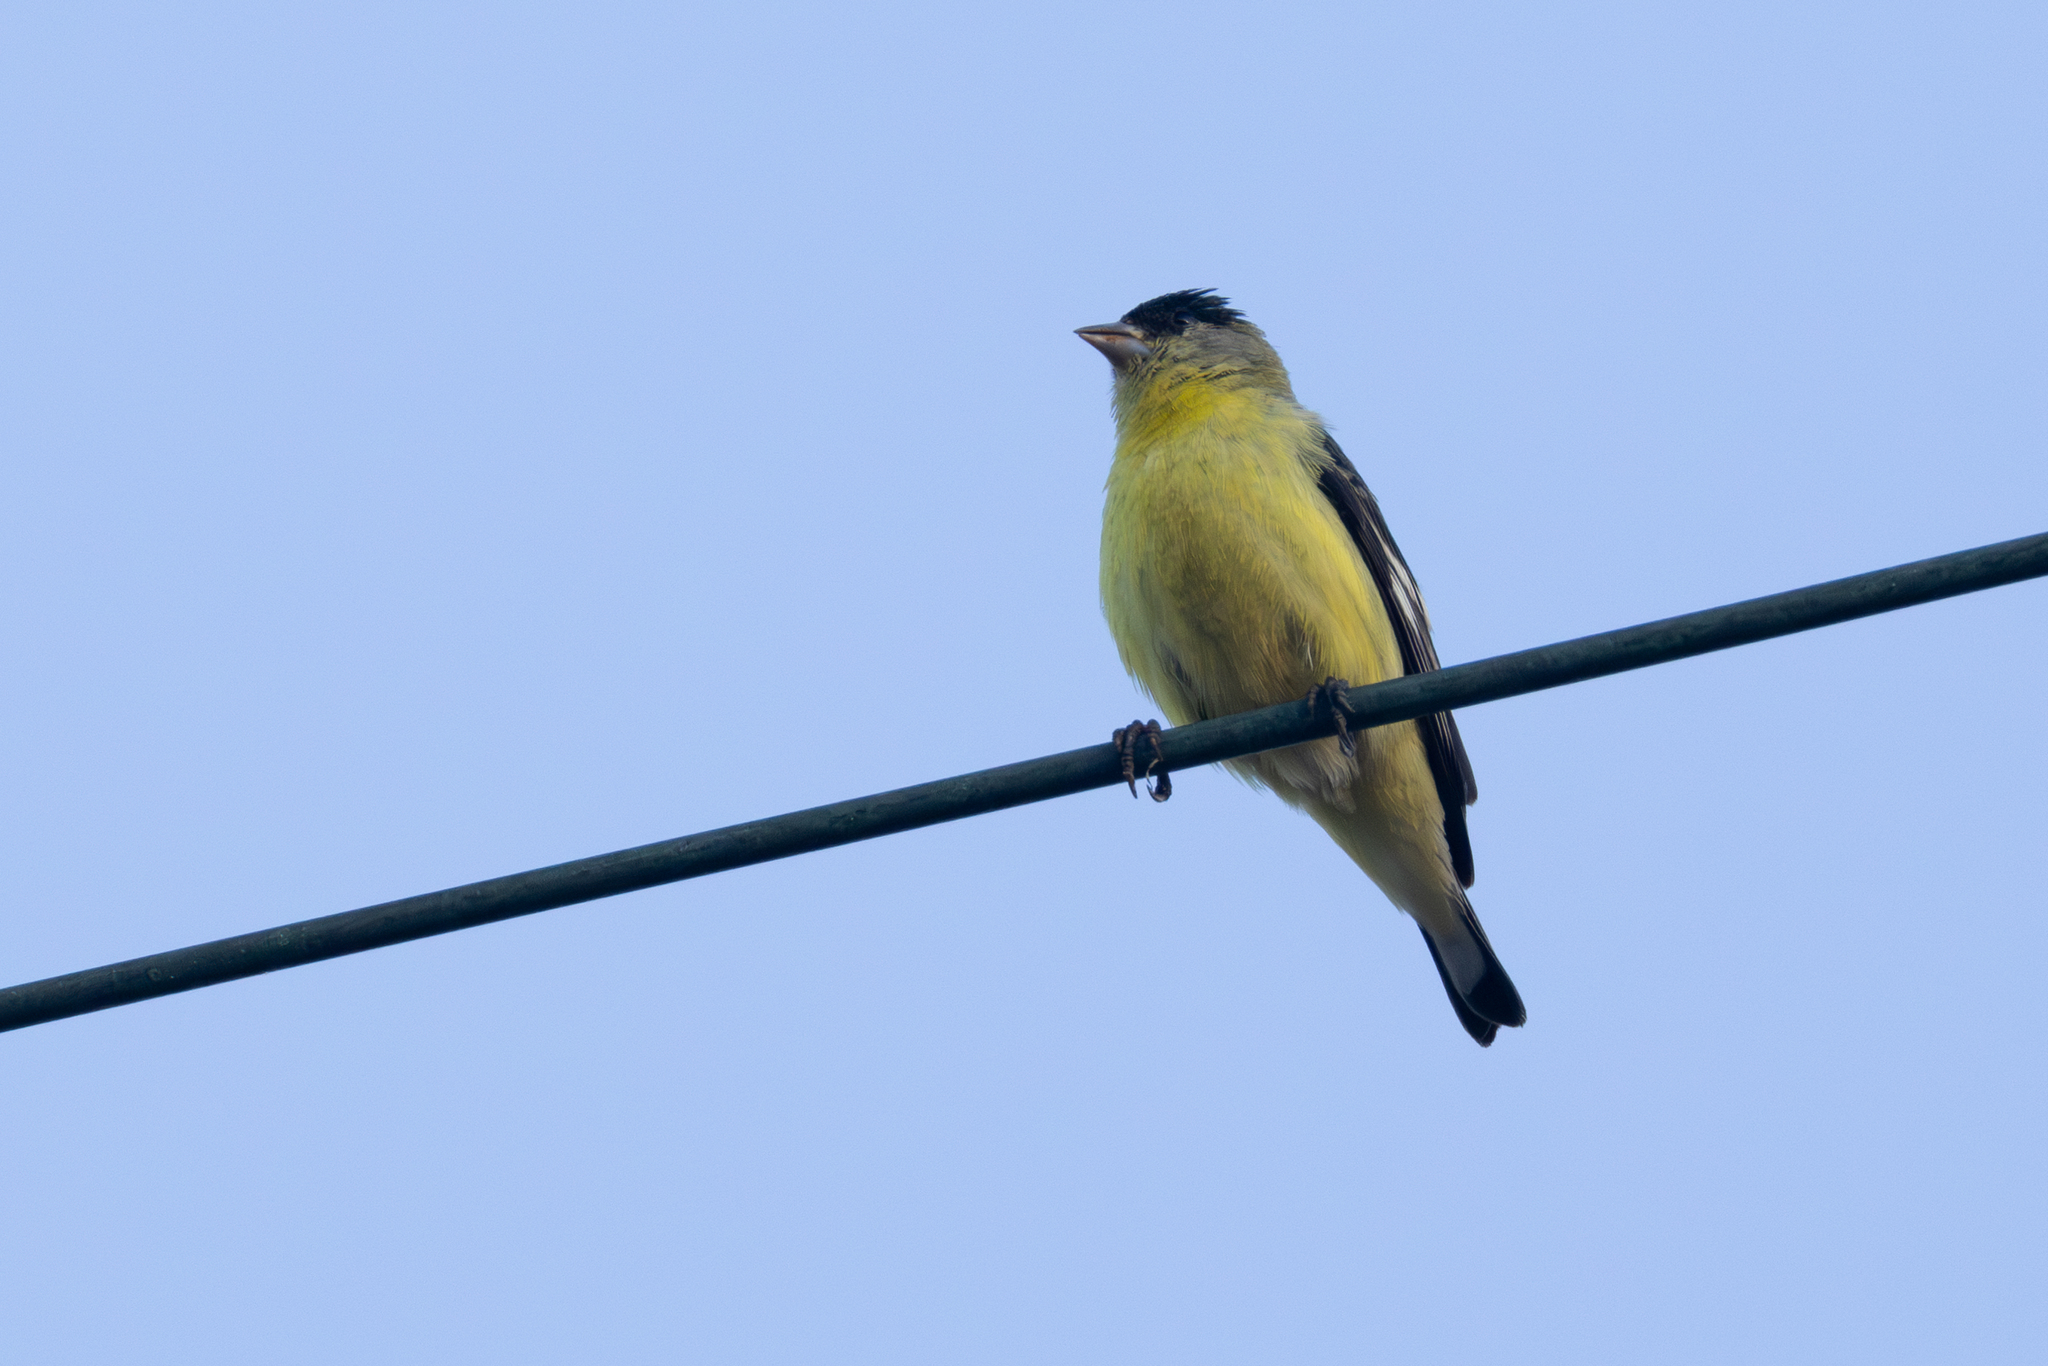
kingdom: Animalia
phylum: Chordata
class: Aves
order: Passeriformes
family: Fringillidae
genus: Spinus
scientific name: Spinus psaltria
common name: Lesser goldfinch
